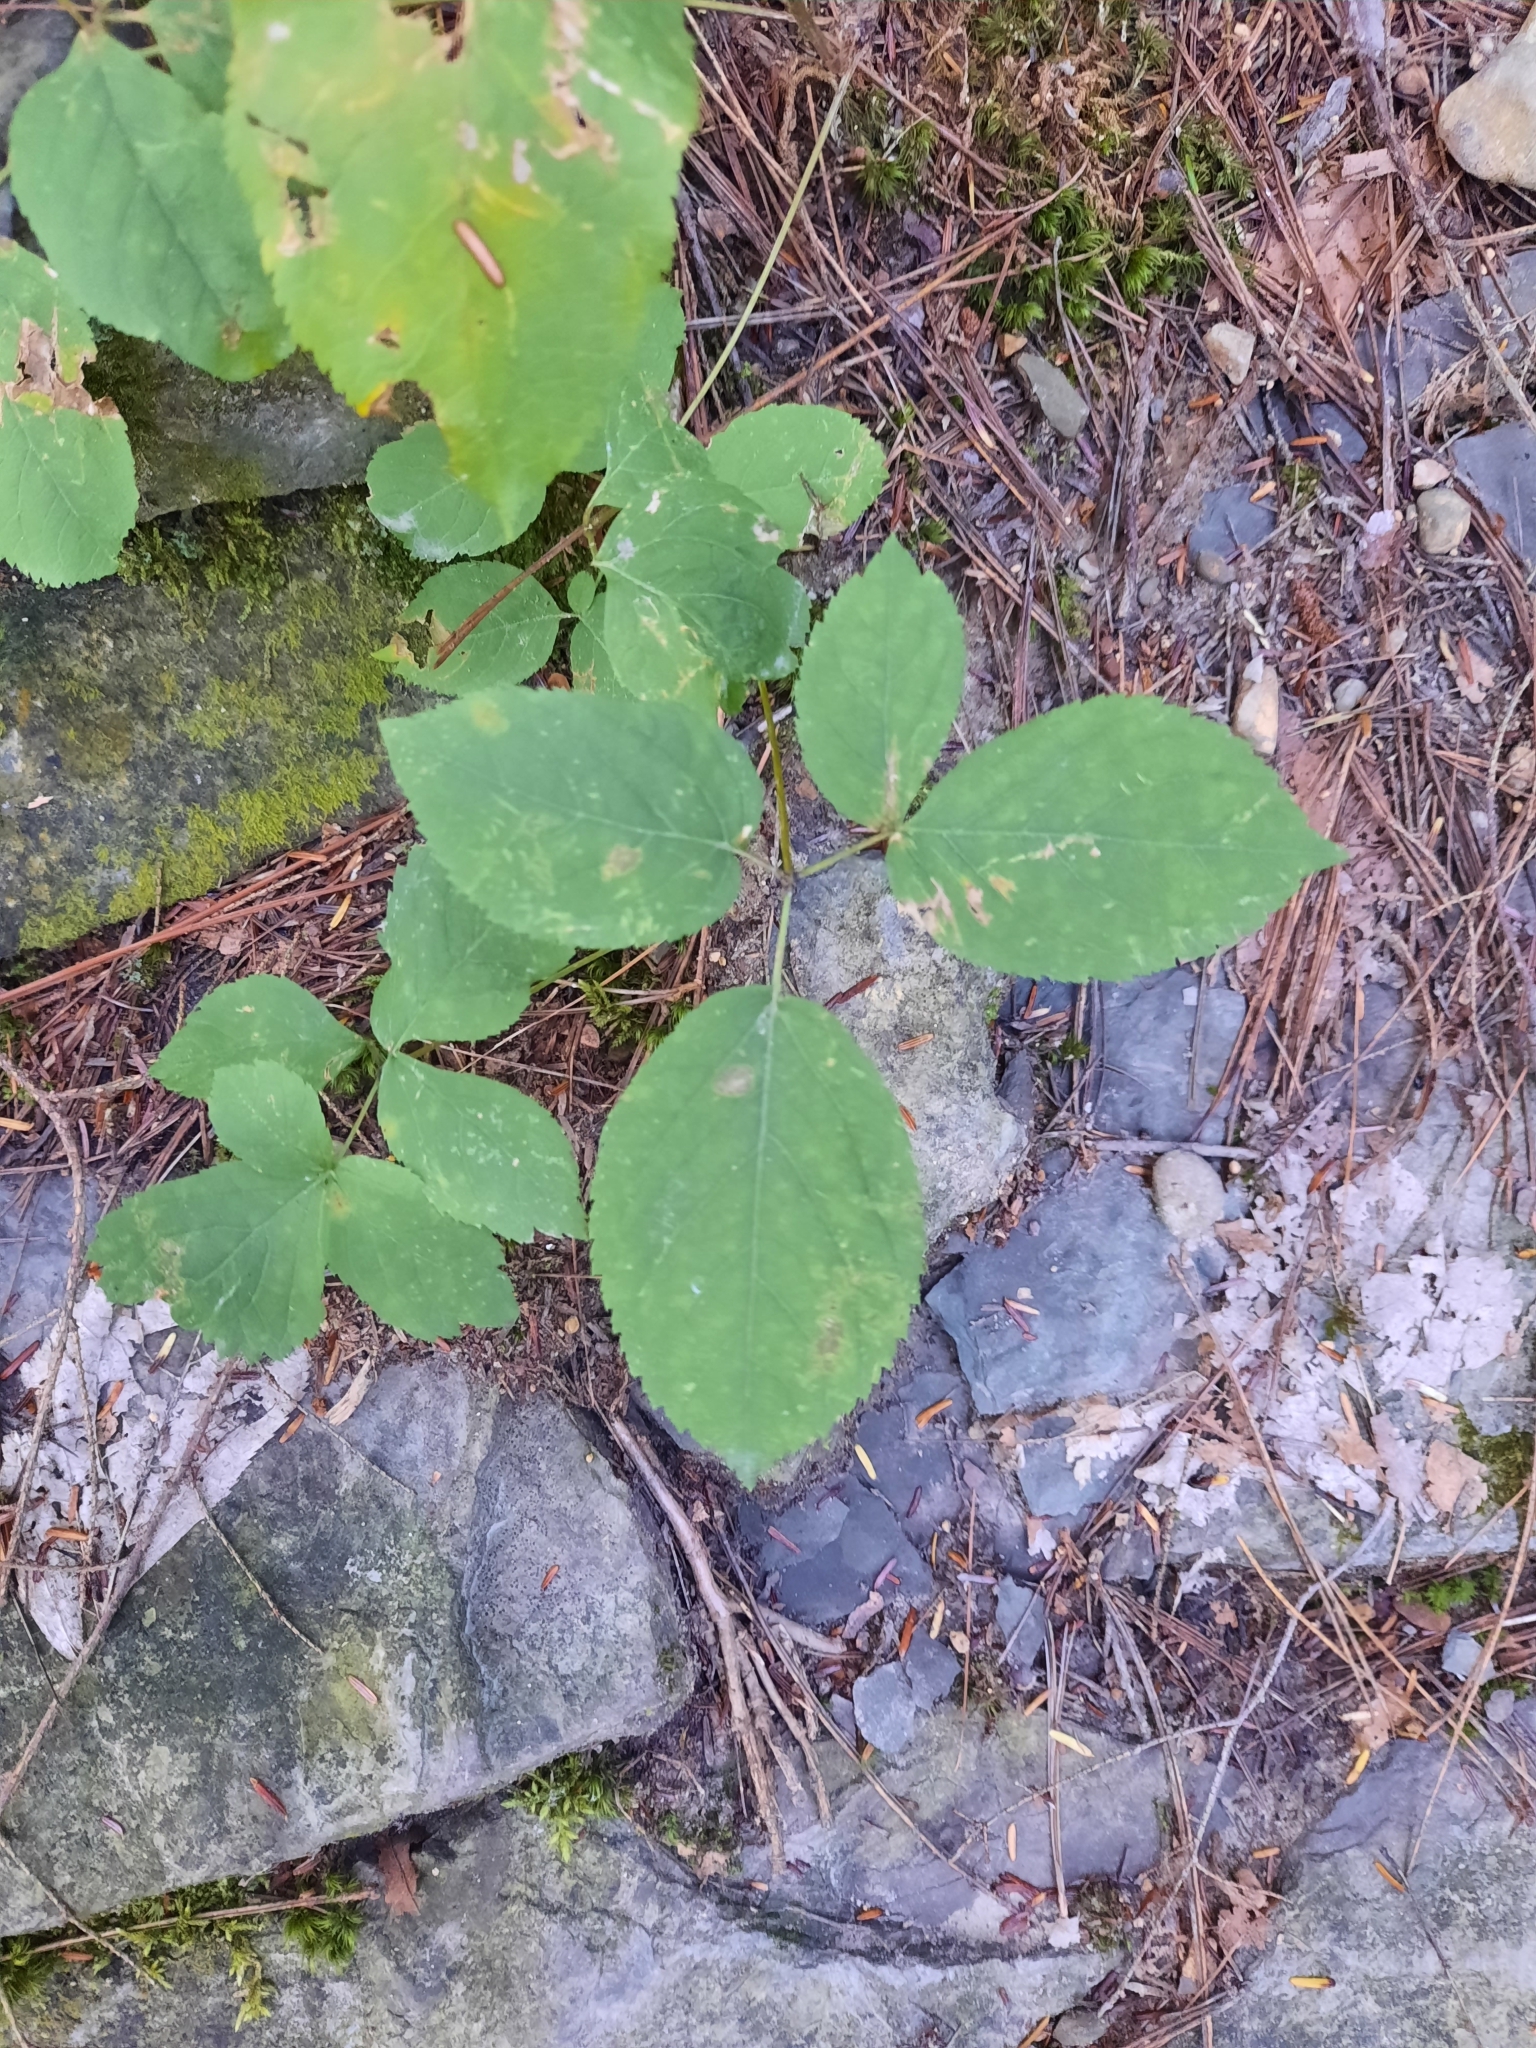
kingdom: Plantae
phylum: Tracheophyta
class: Magnoliopsida
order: Apiales
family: Araliaceae
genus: Aralia
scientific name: Aralia nudicaulis
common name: Wild sarsaparilla
